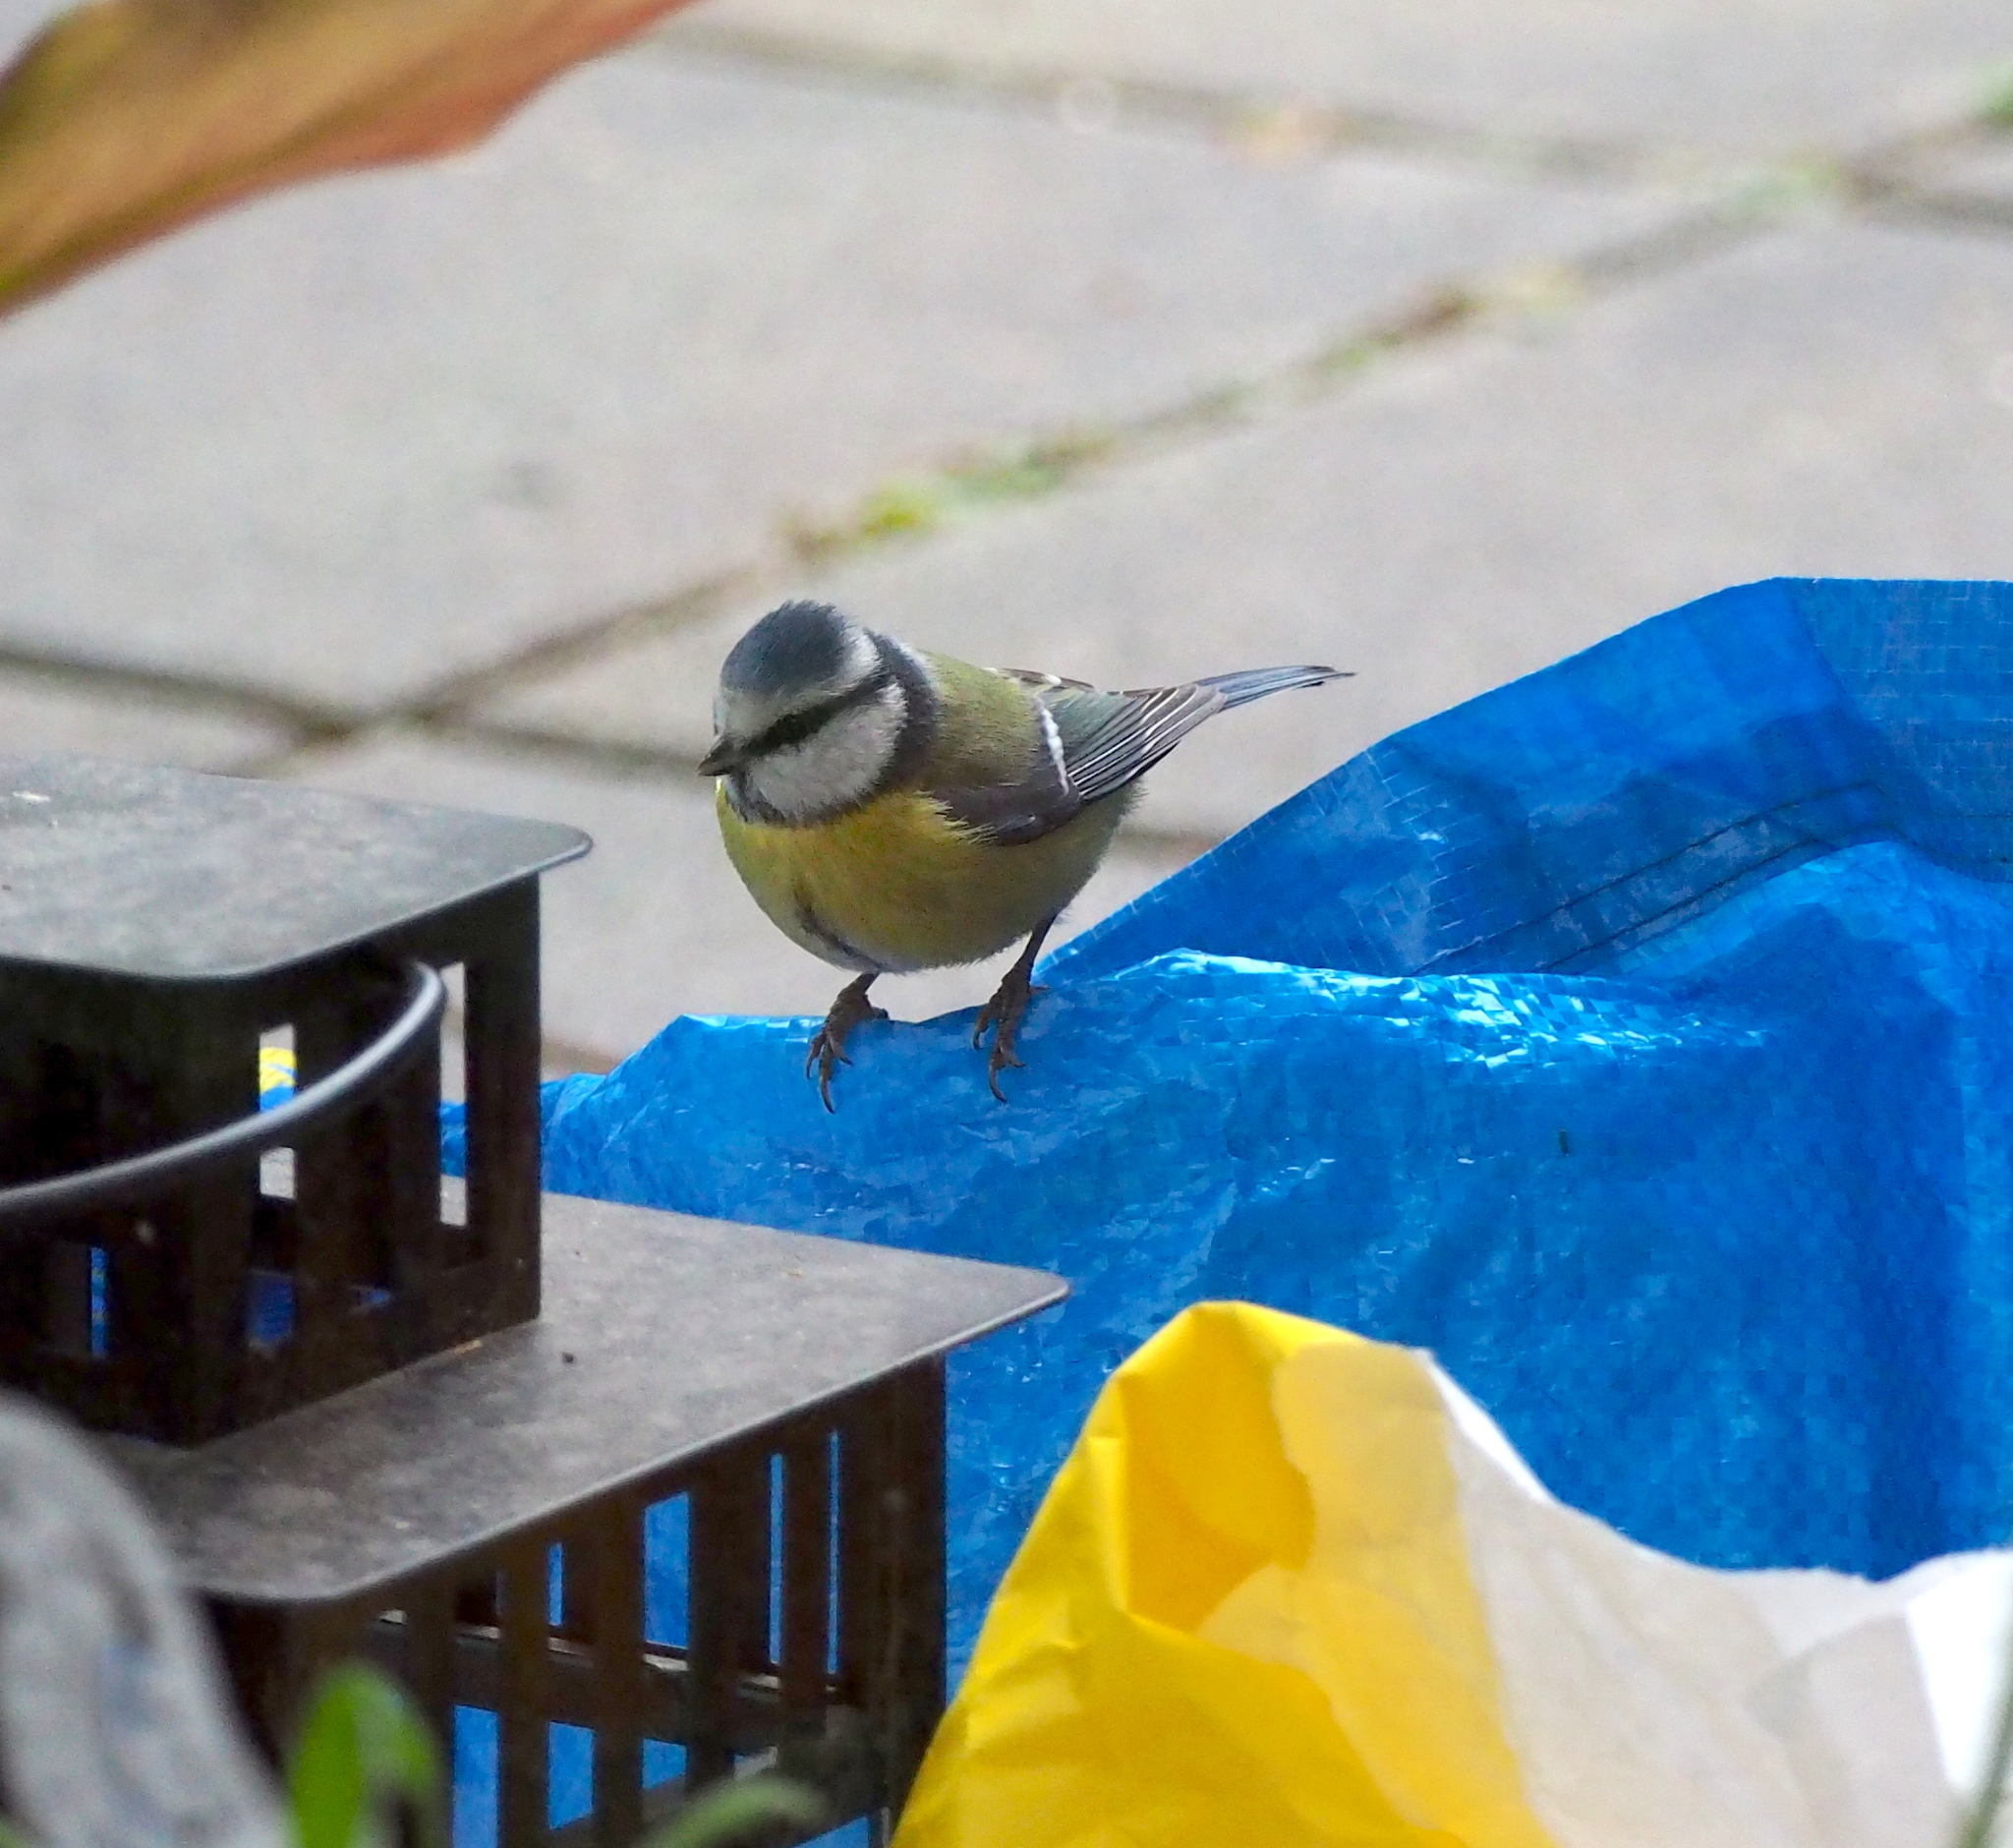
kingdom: Animalia
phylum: Chordata
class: Aves
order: Passeriformes
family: Paridae
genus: Cyanistes
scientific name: Cyanistes caeruleus
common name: Eurasian blue tit
